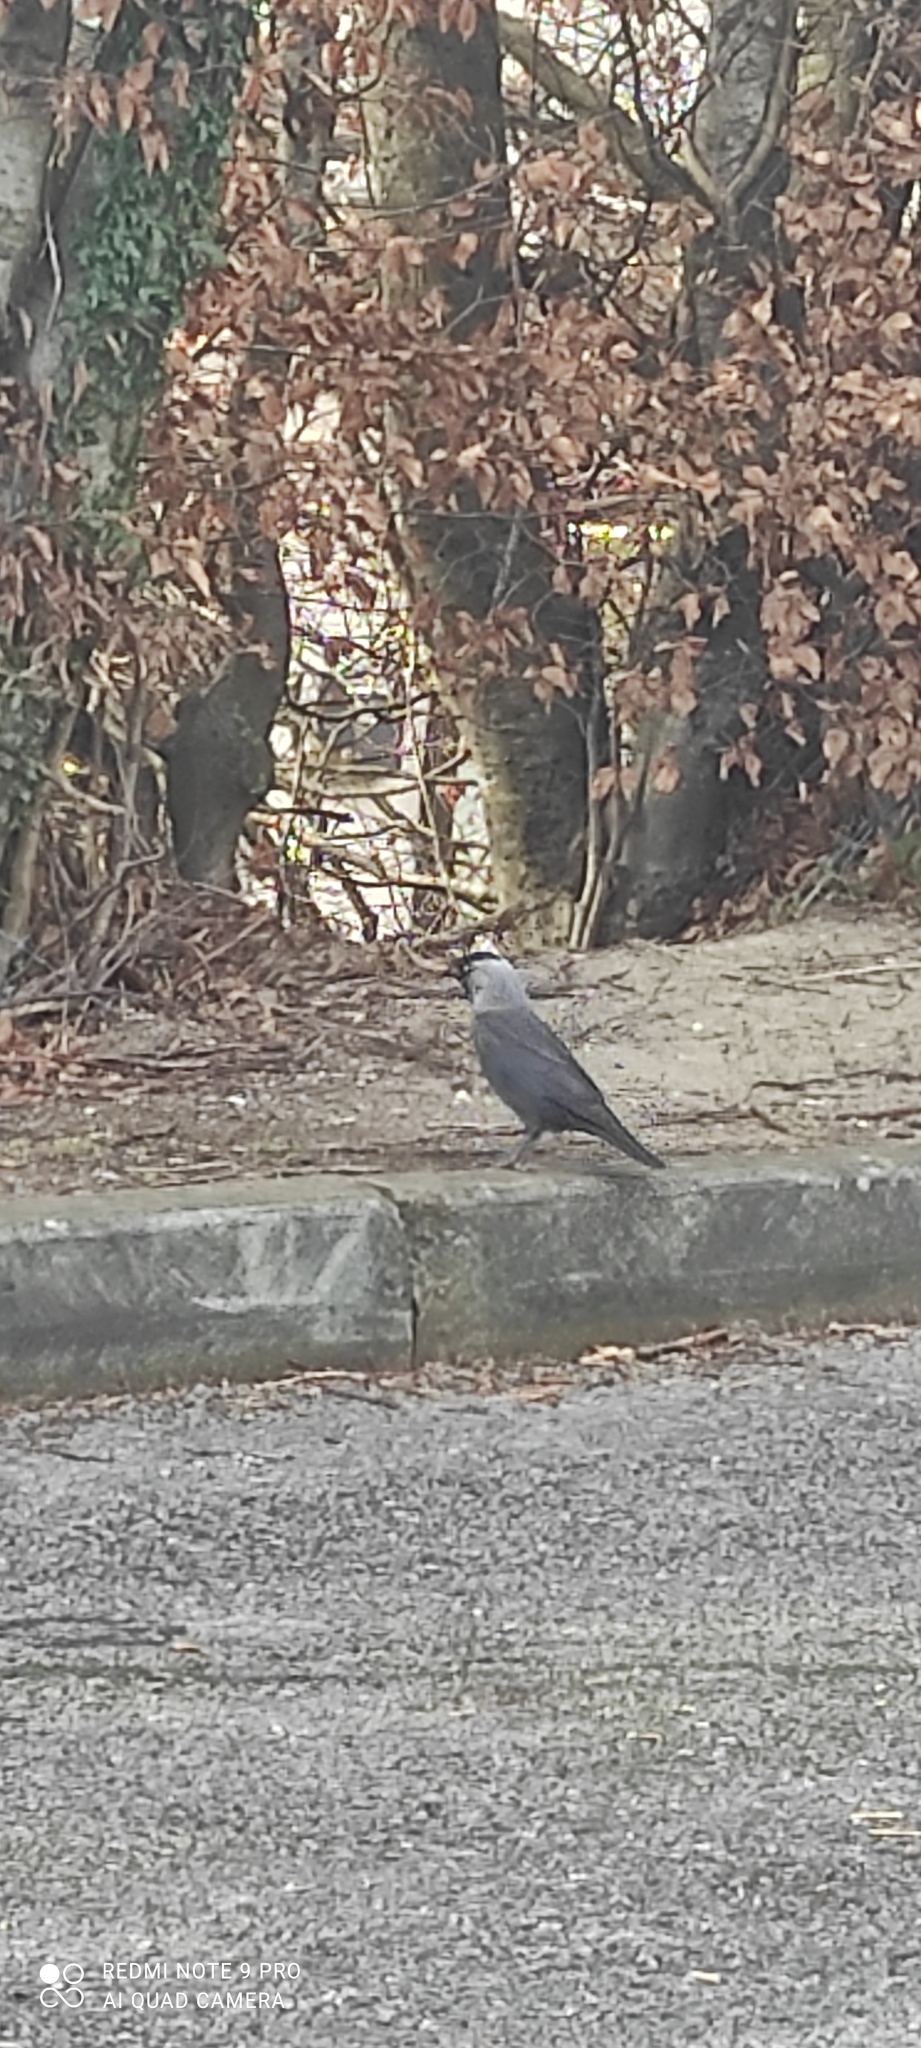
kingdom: Animalia
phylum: Chordata
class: Aves
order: Passeriformes
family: Corvidae
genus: Coloeus
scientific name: Coloeus monedula
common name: Western jackdaw
